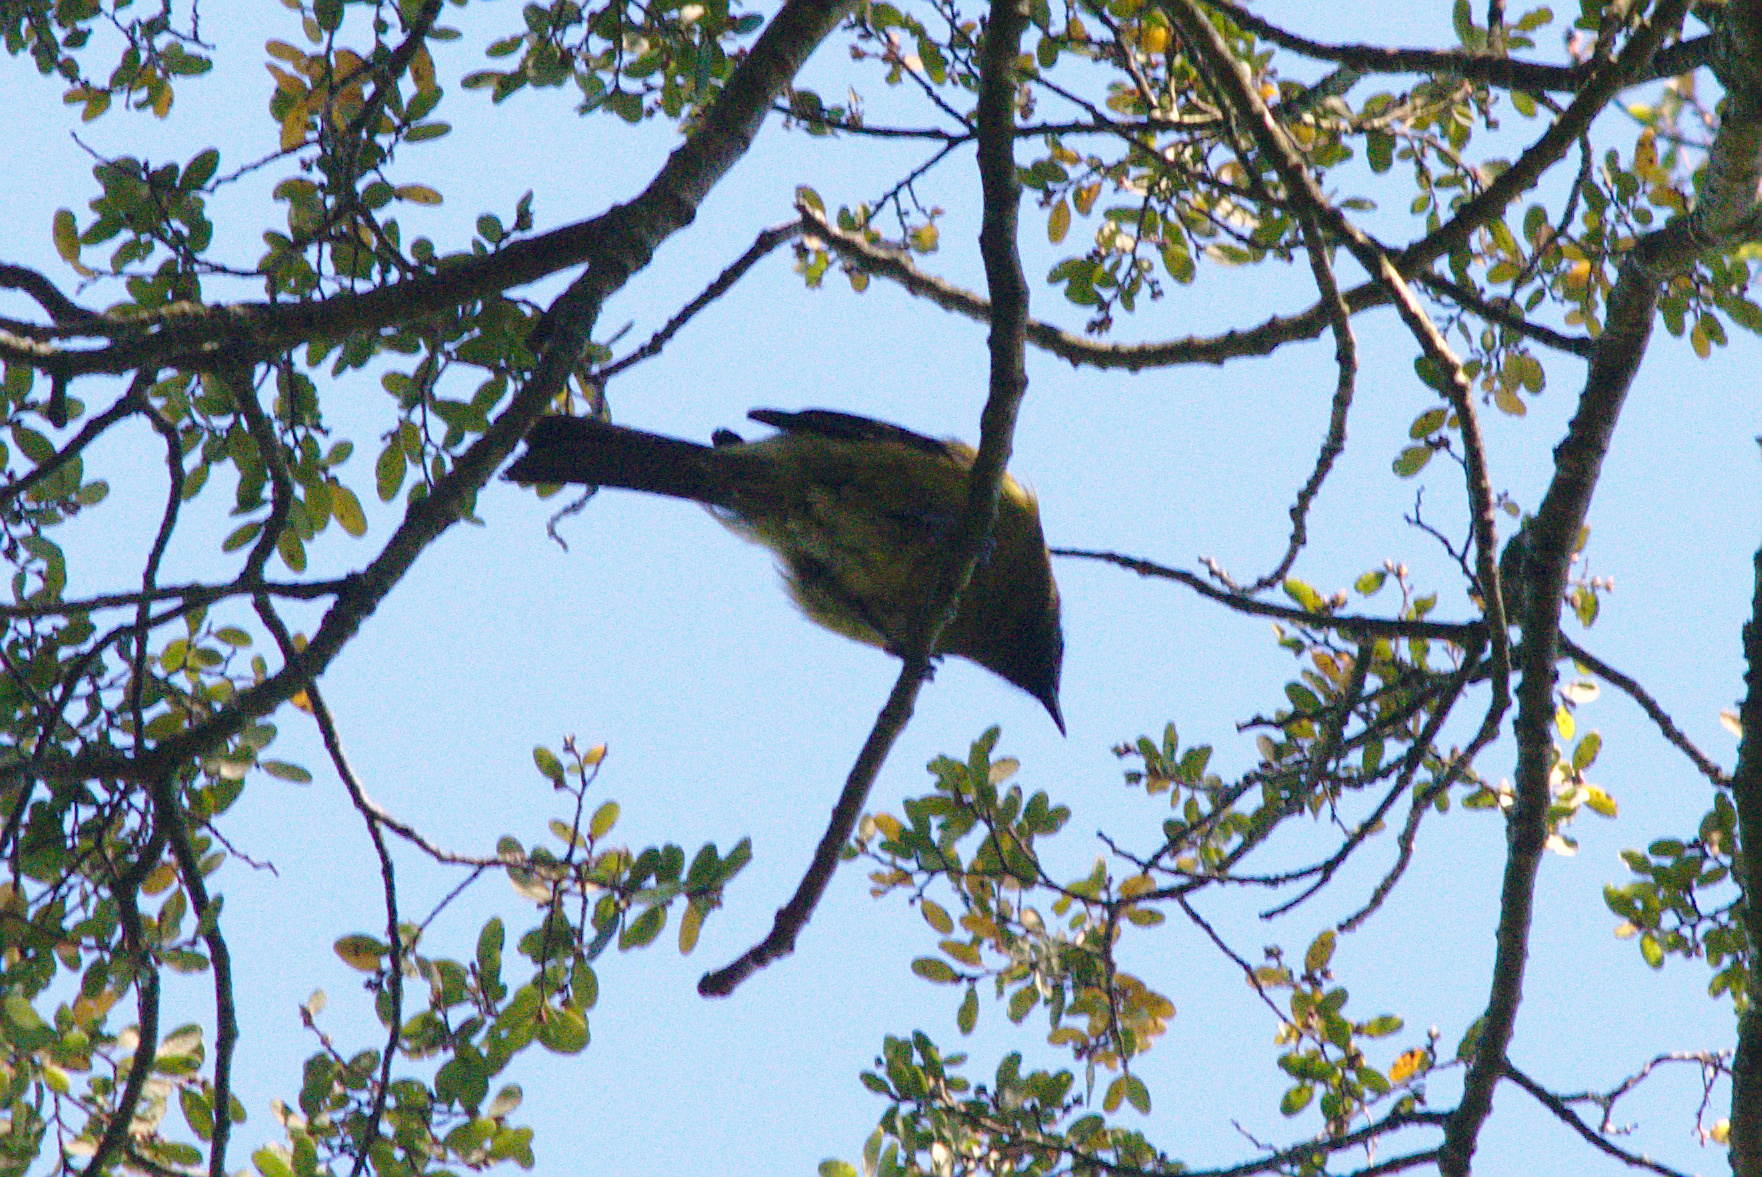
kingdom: Animalia
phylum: Chordata
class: Aves
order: Passeriformes
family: Meliphagidae
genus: Anthornis
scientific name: Anthornis melanura
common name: New zealand bellbird
